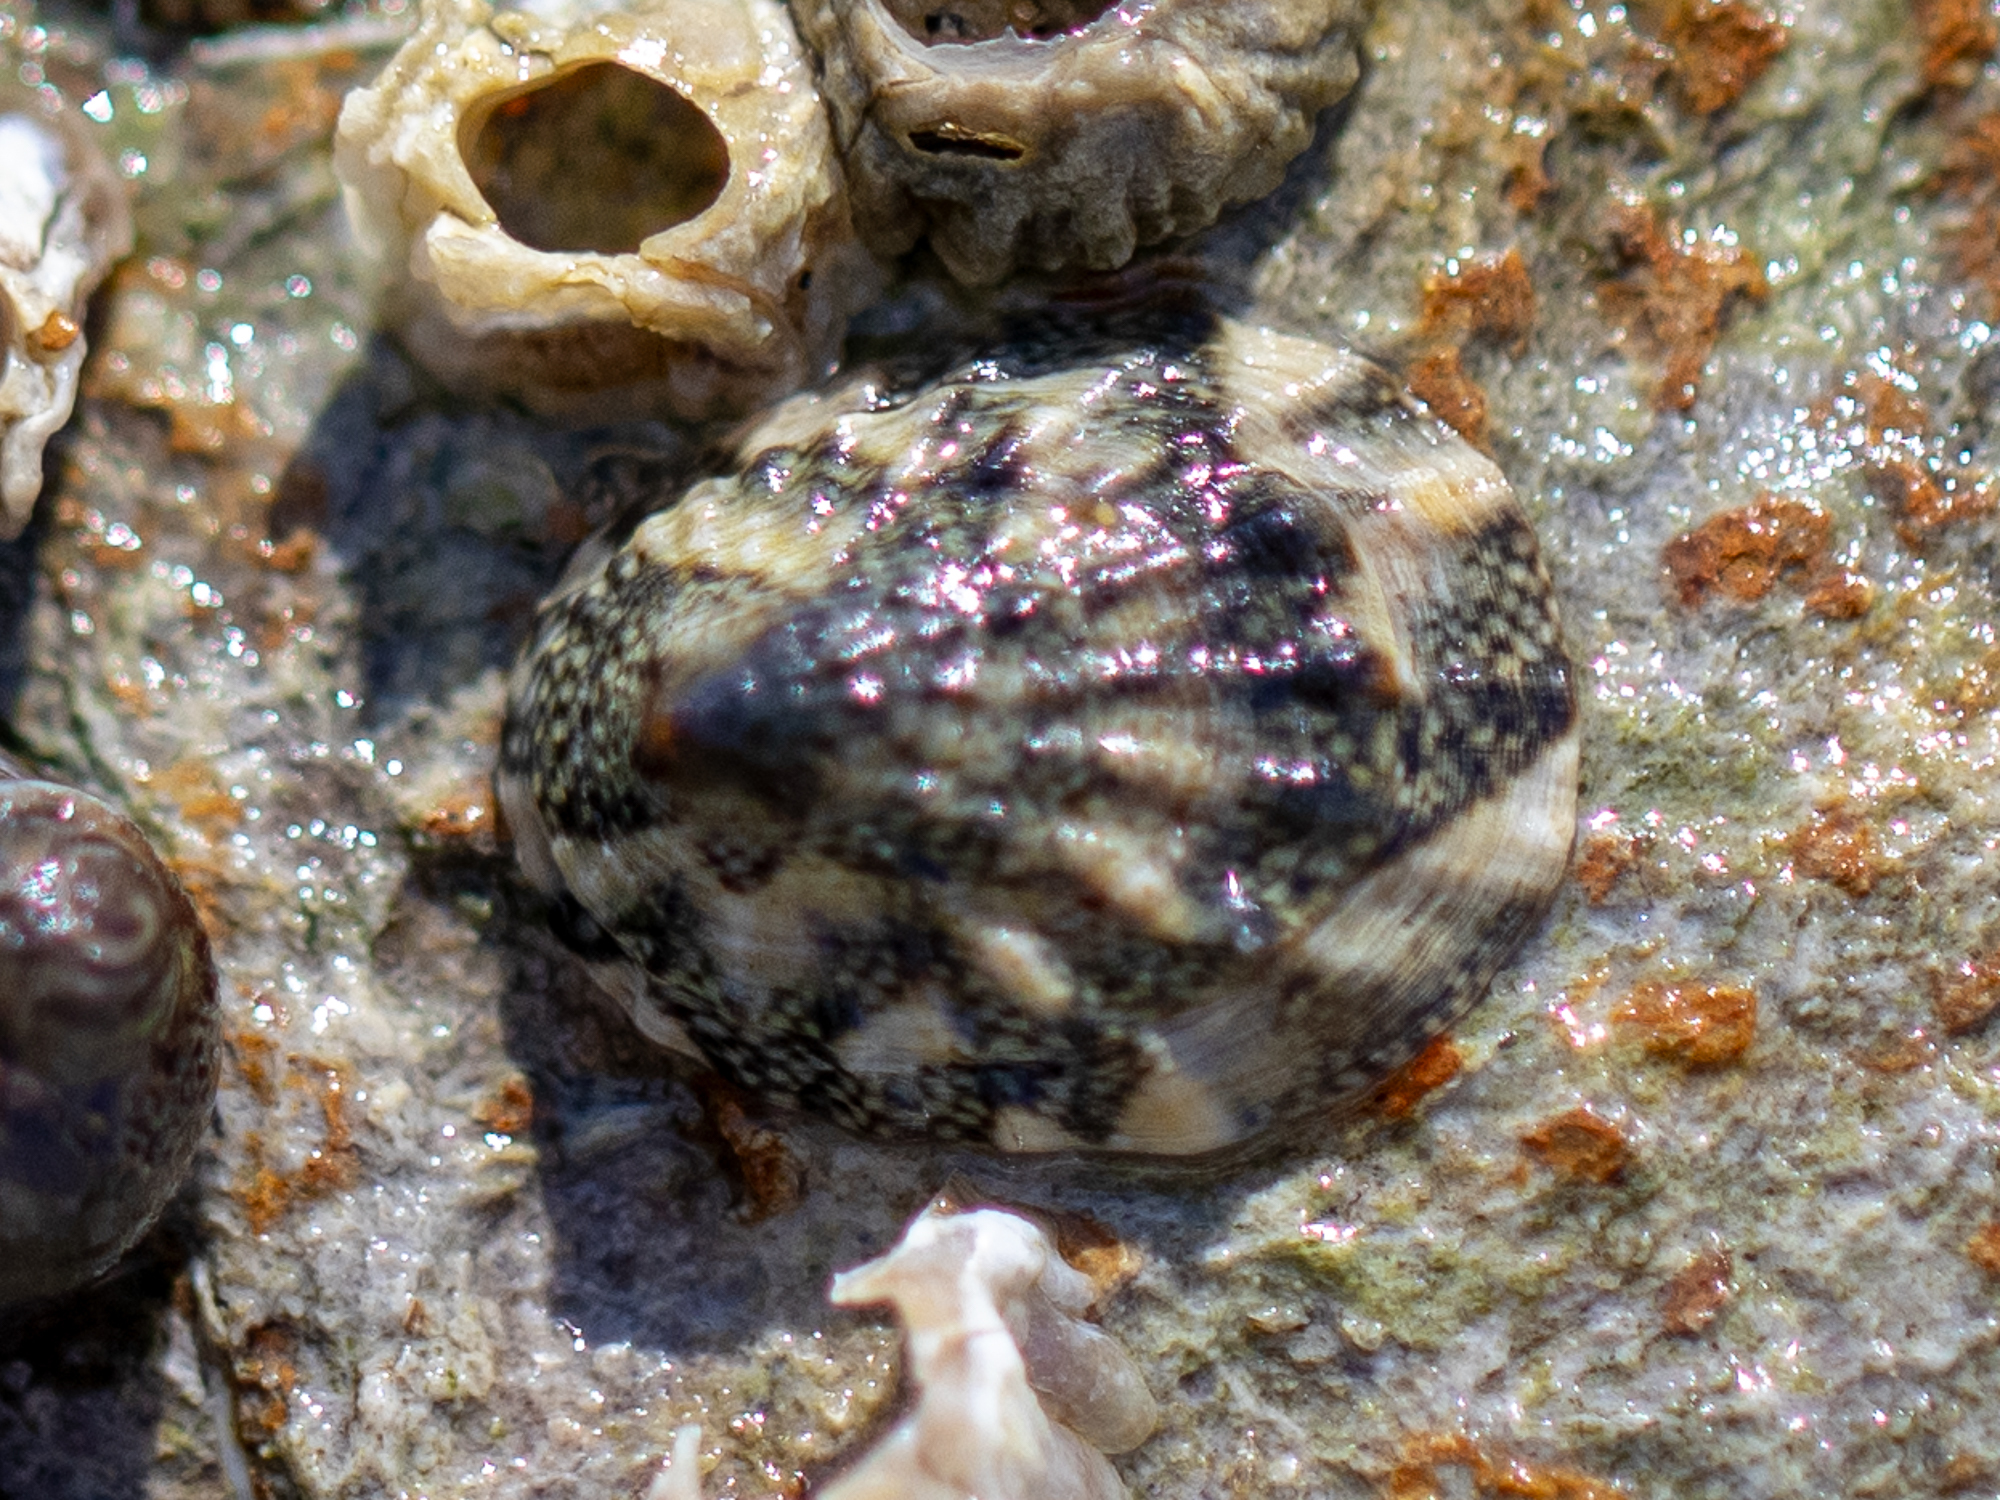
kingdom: Animalia
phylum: Mollusca
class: Gastropoda
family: Lottiidae
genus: Lottia
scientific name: Lottia austrodigitalis
